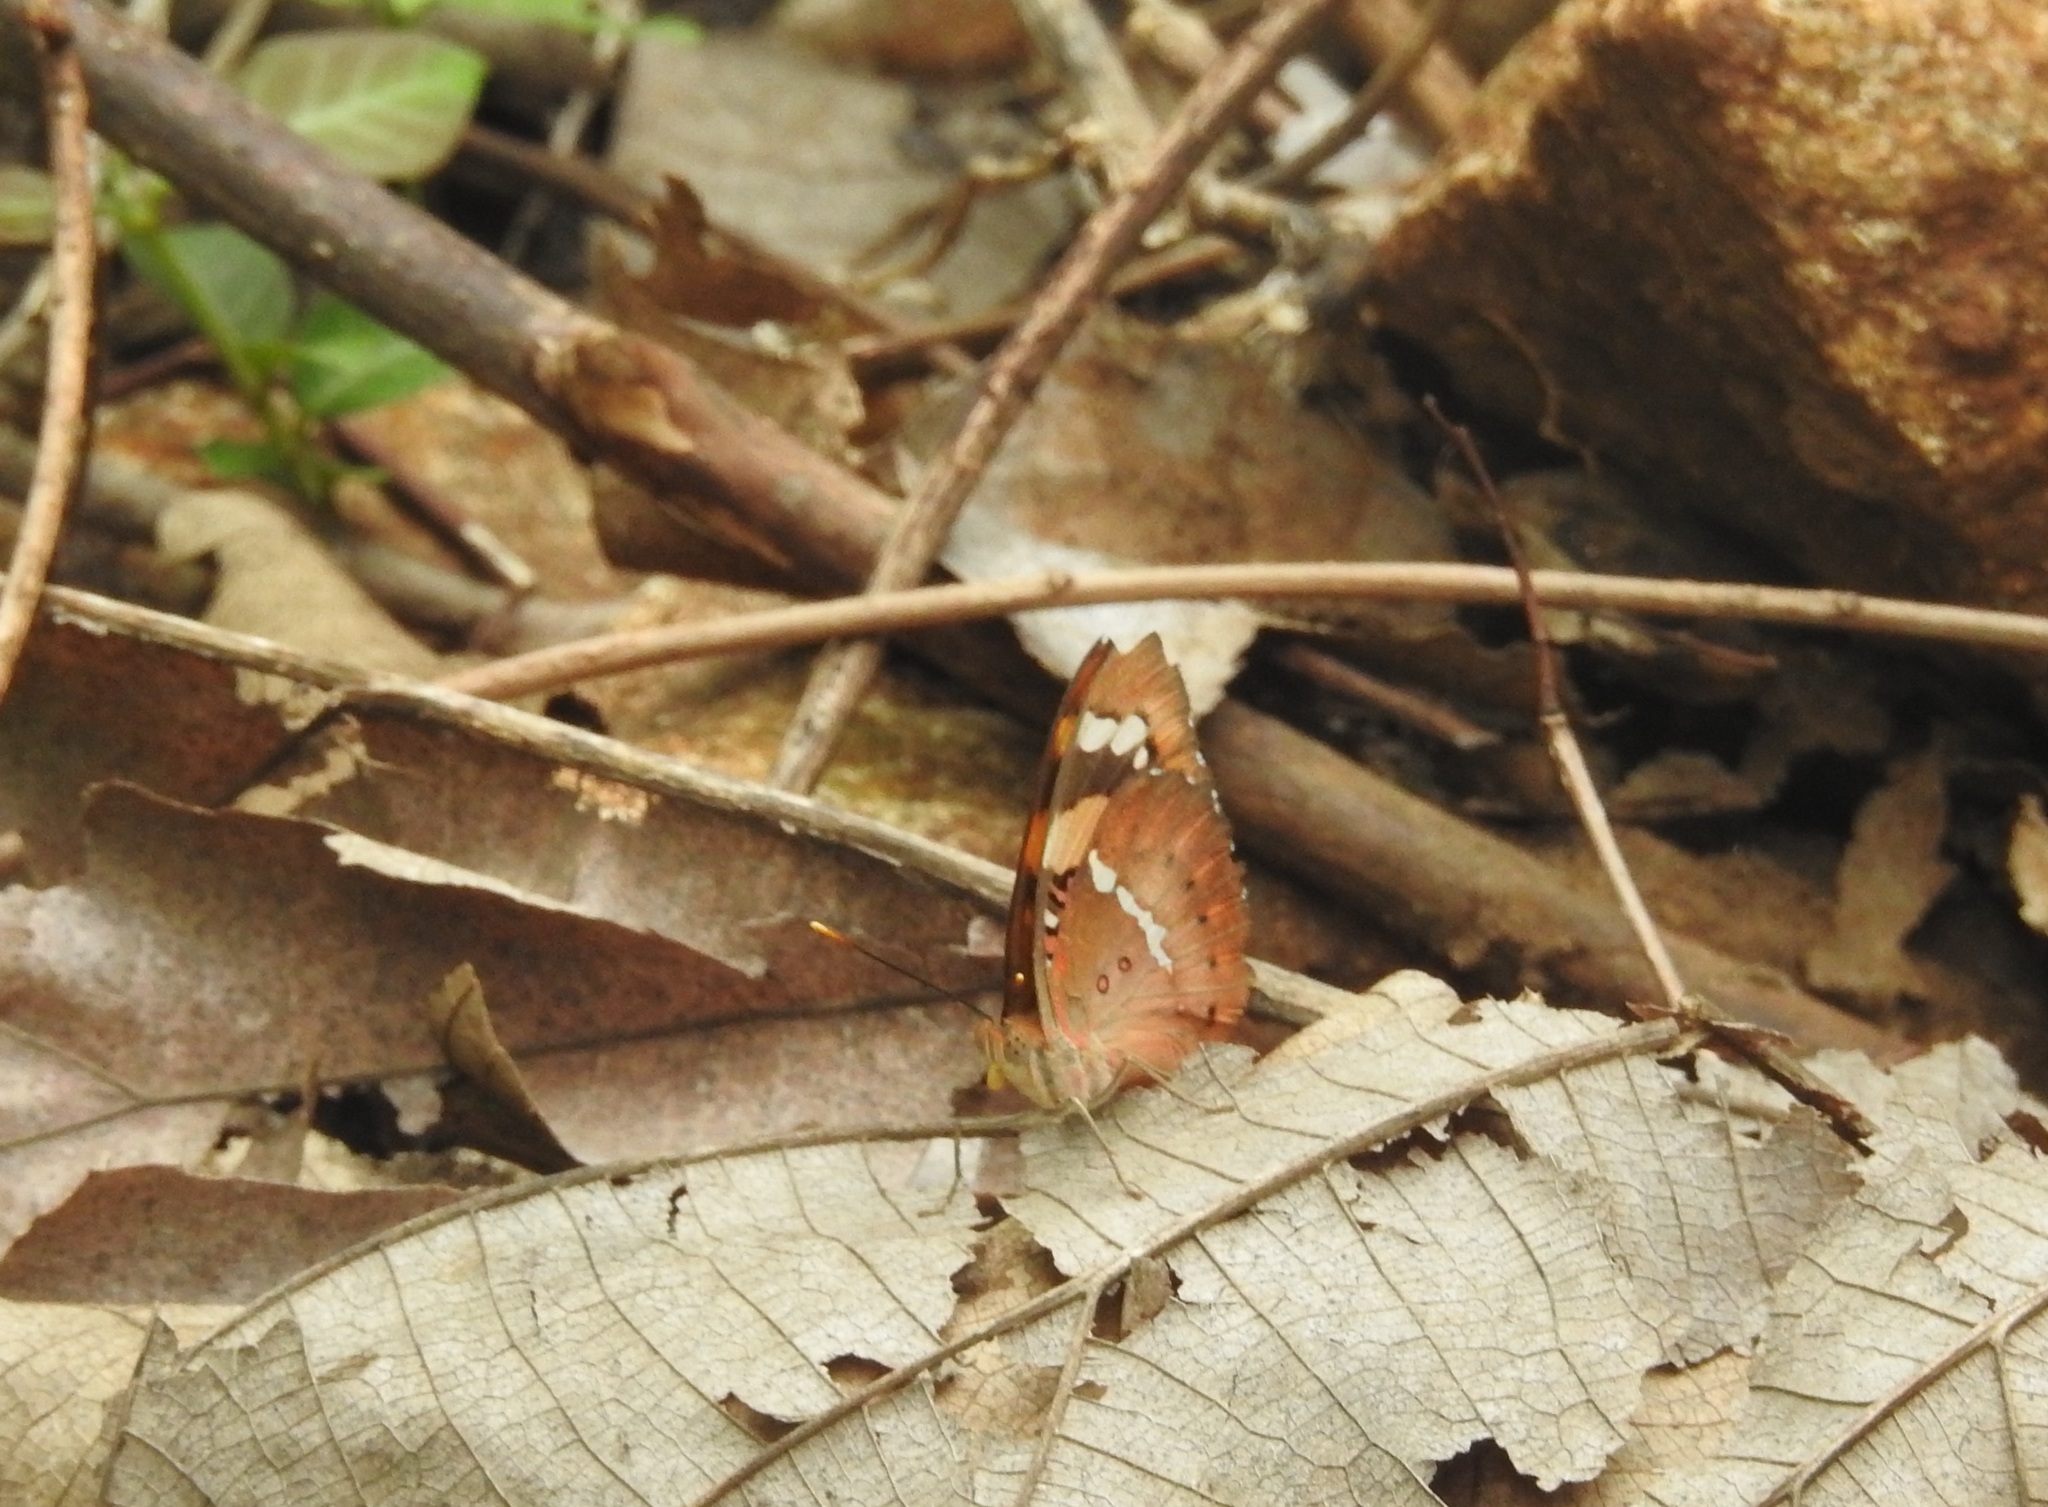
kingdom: Animalia
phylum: Arthropoda
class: Insecta
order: Lepidoptera
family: Nymphalidae
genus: Euthalia
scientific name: Euthalia nais
